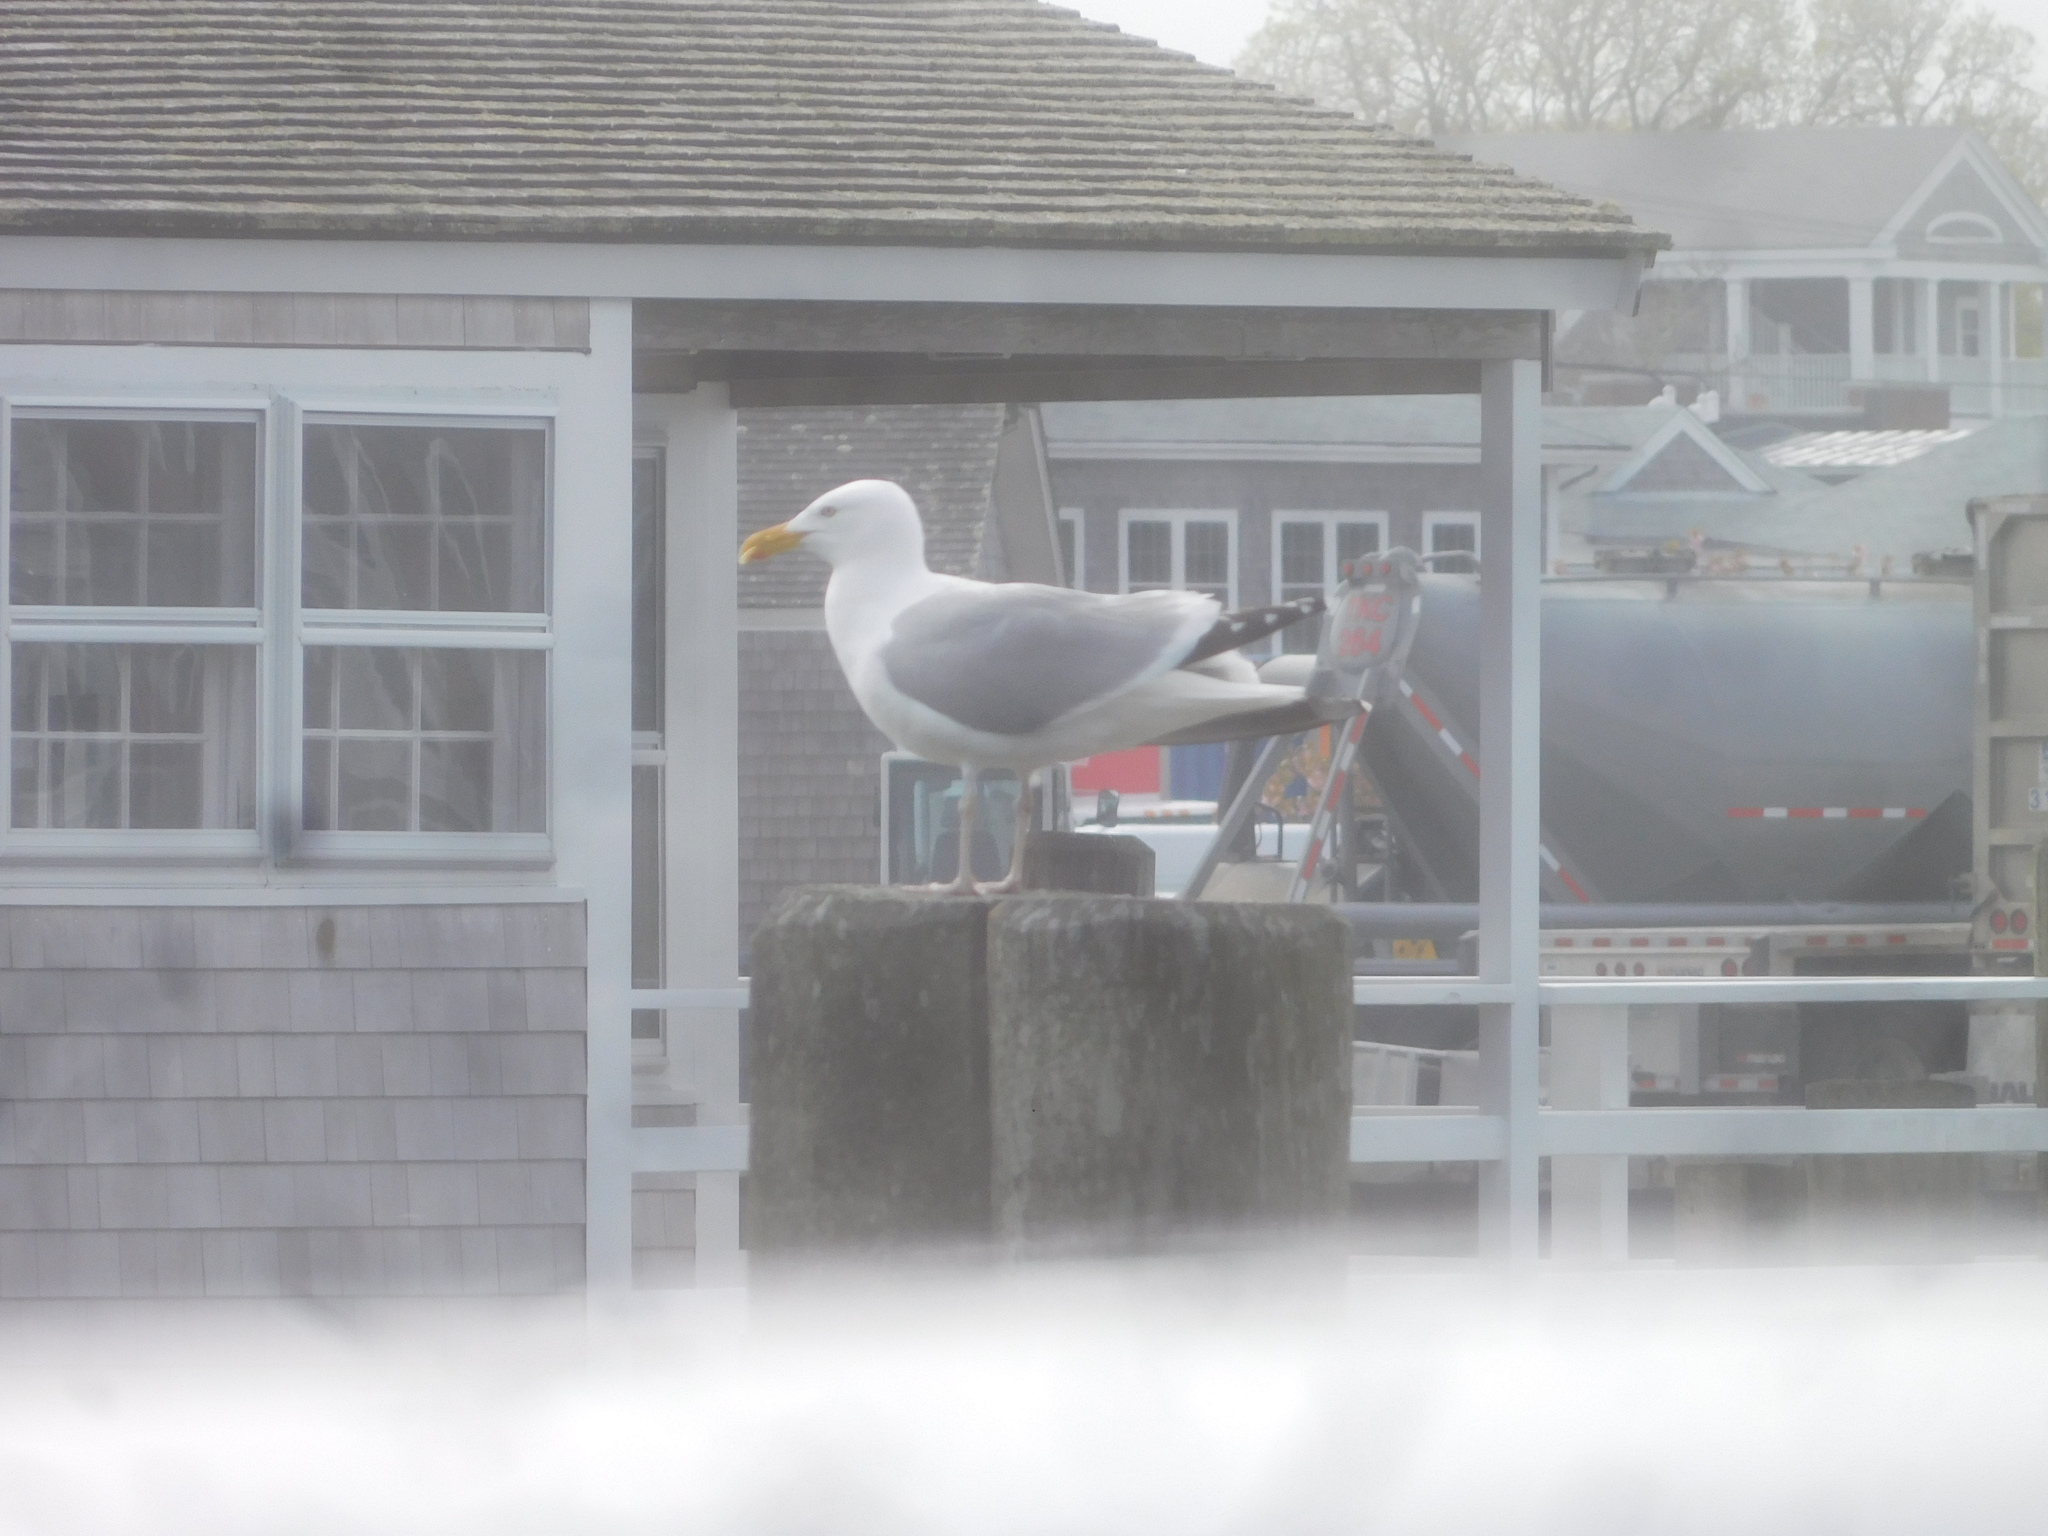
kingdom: Animalia
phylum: Chordata
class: Aves
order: Charadriiformes
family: Laridae
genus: Larus
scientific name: Larus argentatus
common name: Herring gull
